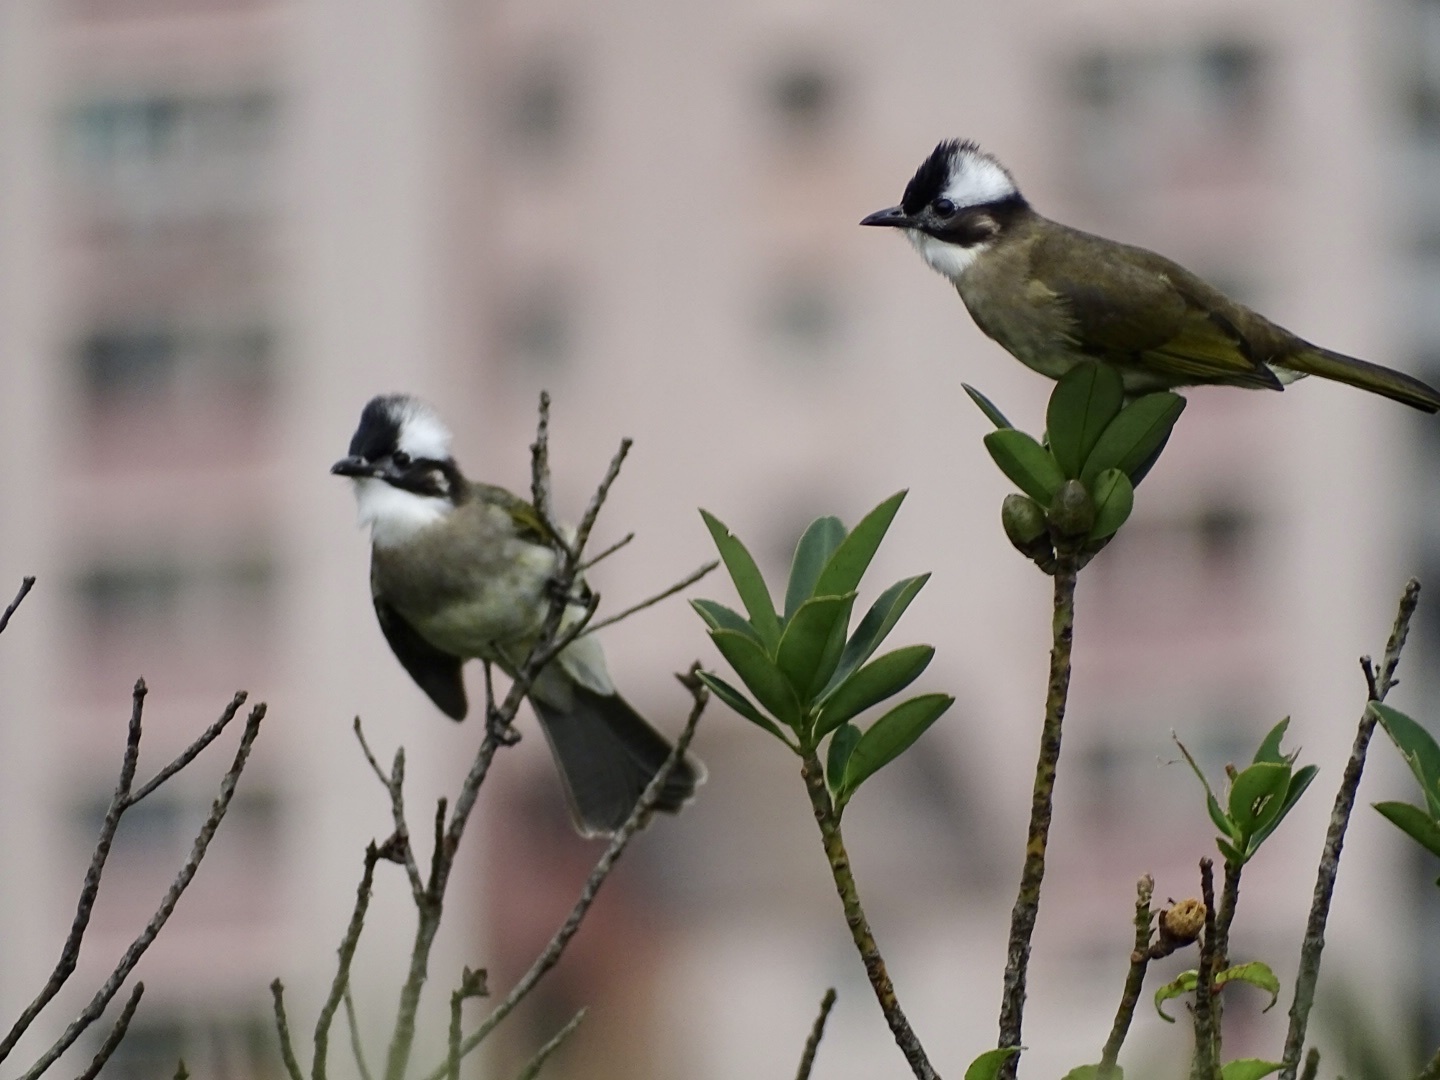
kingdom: Animalia
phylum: Chordata
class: Aves
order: Passeriformes
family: Pycnonotidae
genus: Pycnonotus
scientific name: Pycnonotus sinensis
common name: Light-vented bulbul
